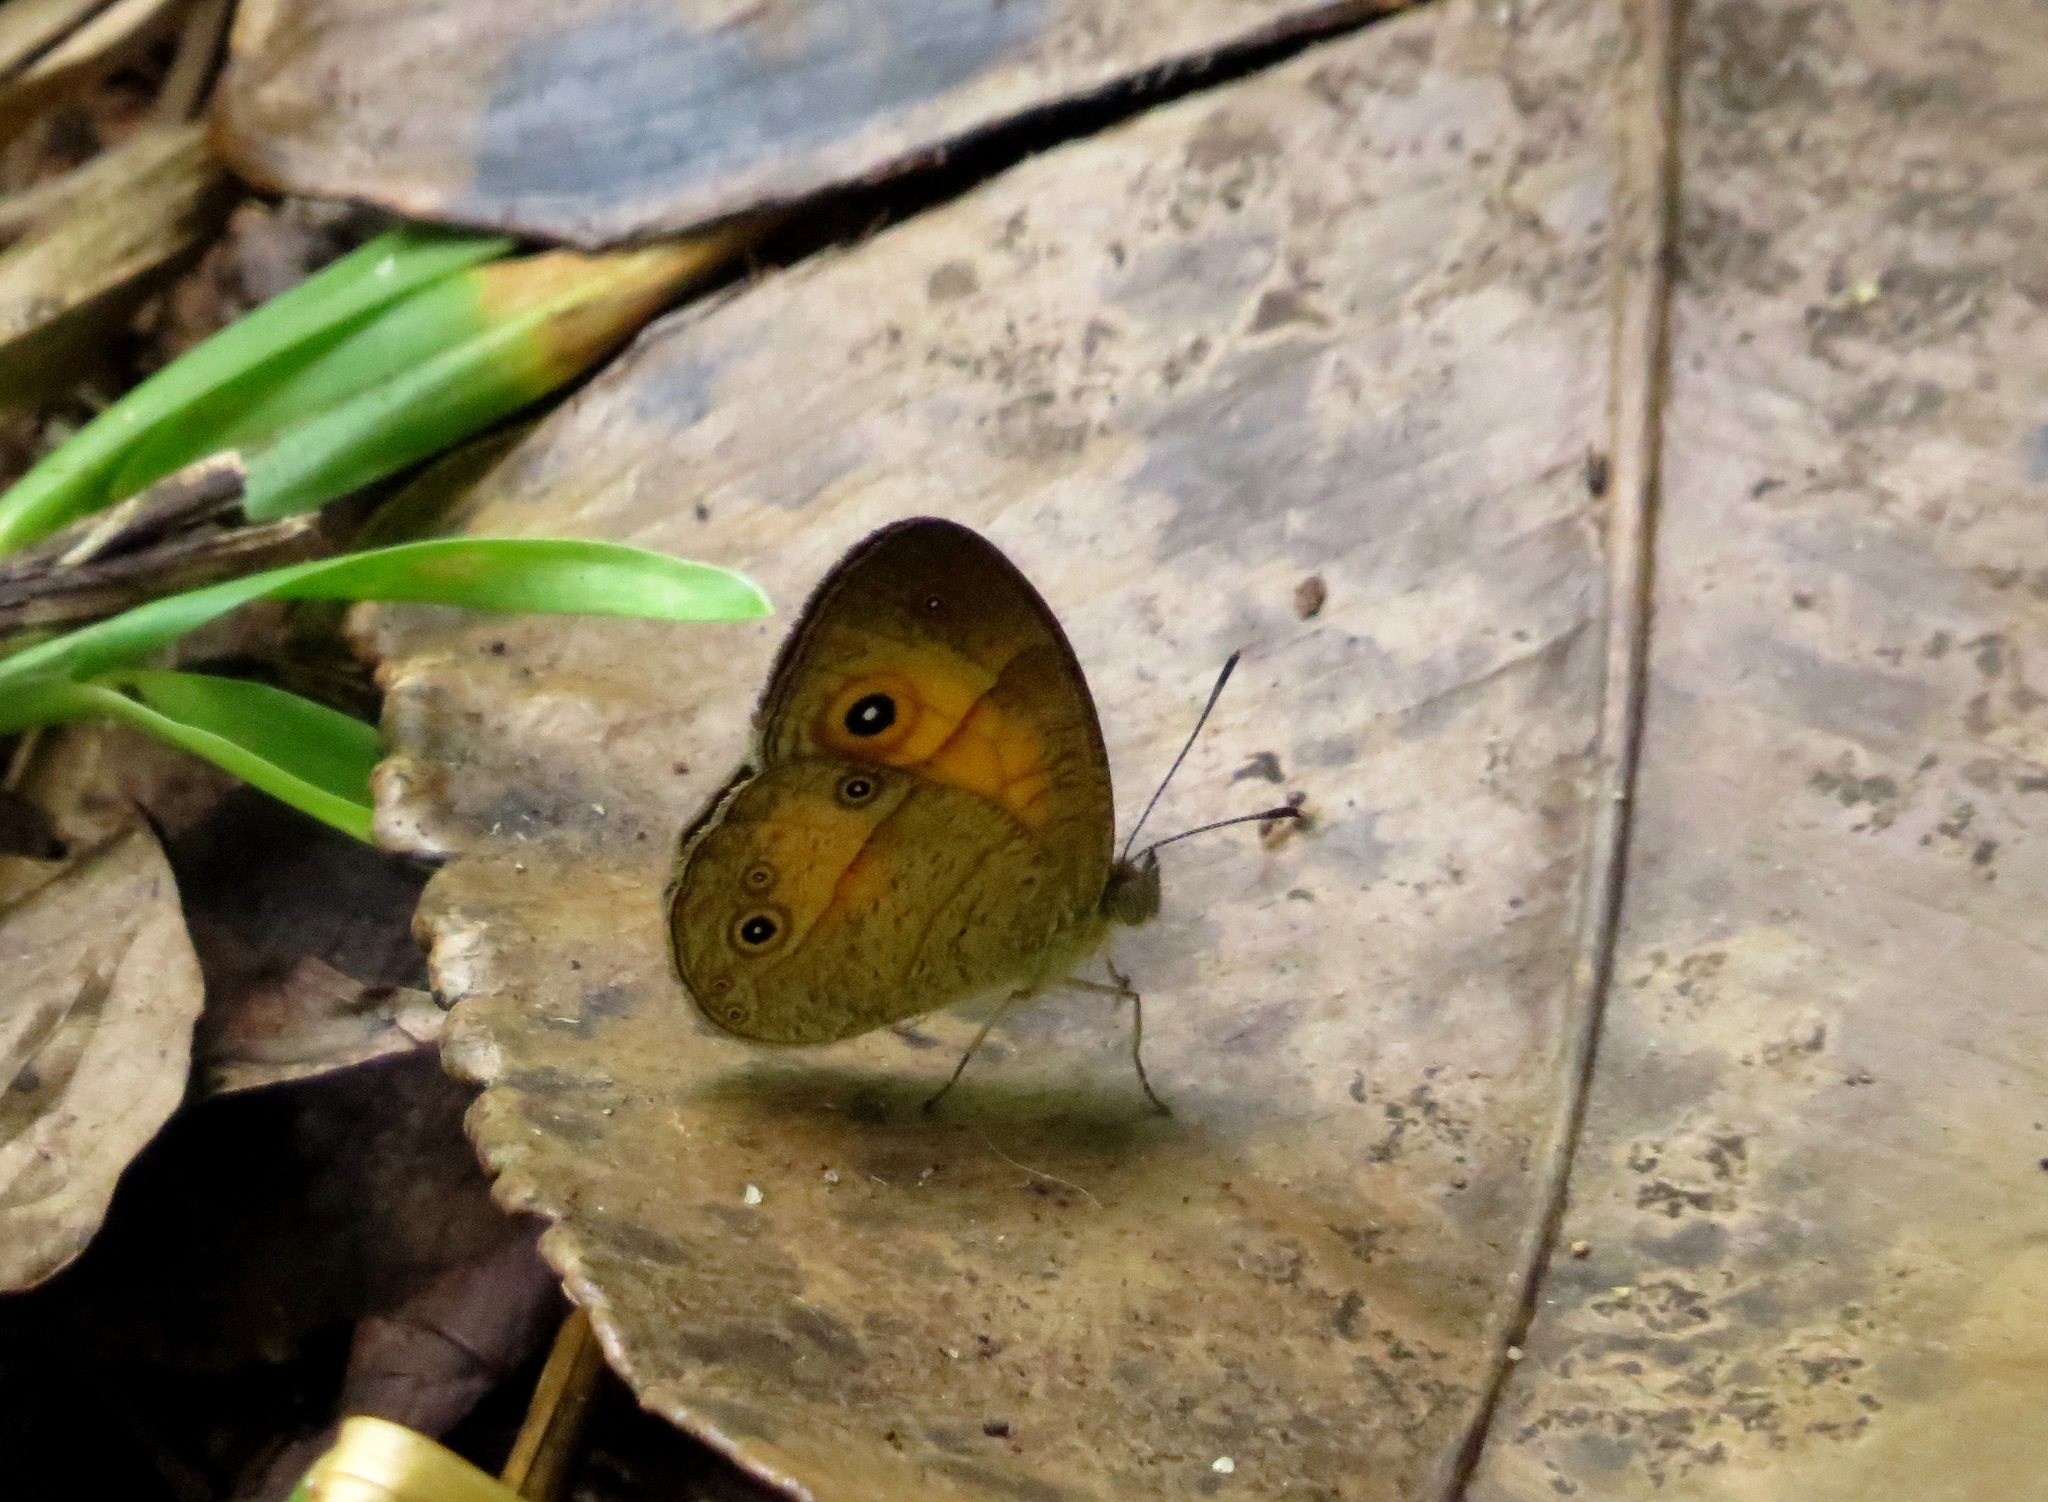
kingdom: Animalia
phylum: Arthropoda
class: Insecta
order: Lepidoptera
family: Nymphalidae
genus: Heteropsis
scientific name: Heteropsis fraterna
